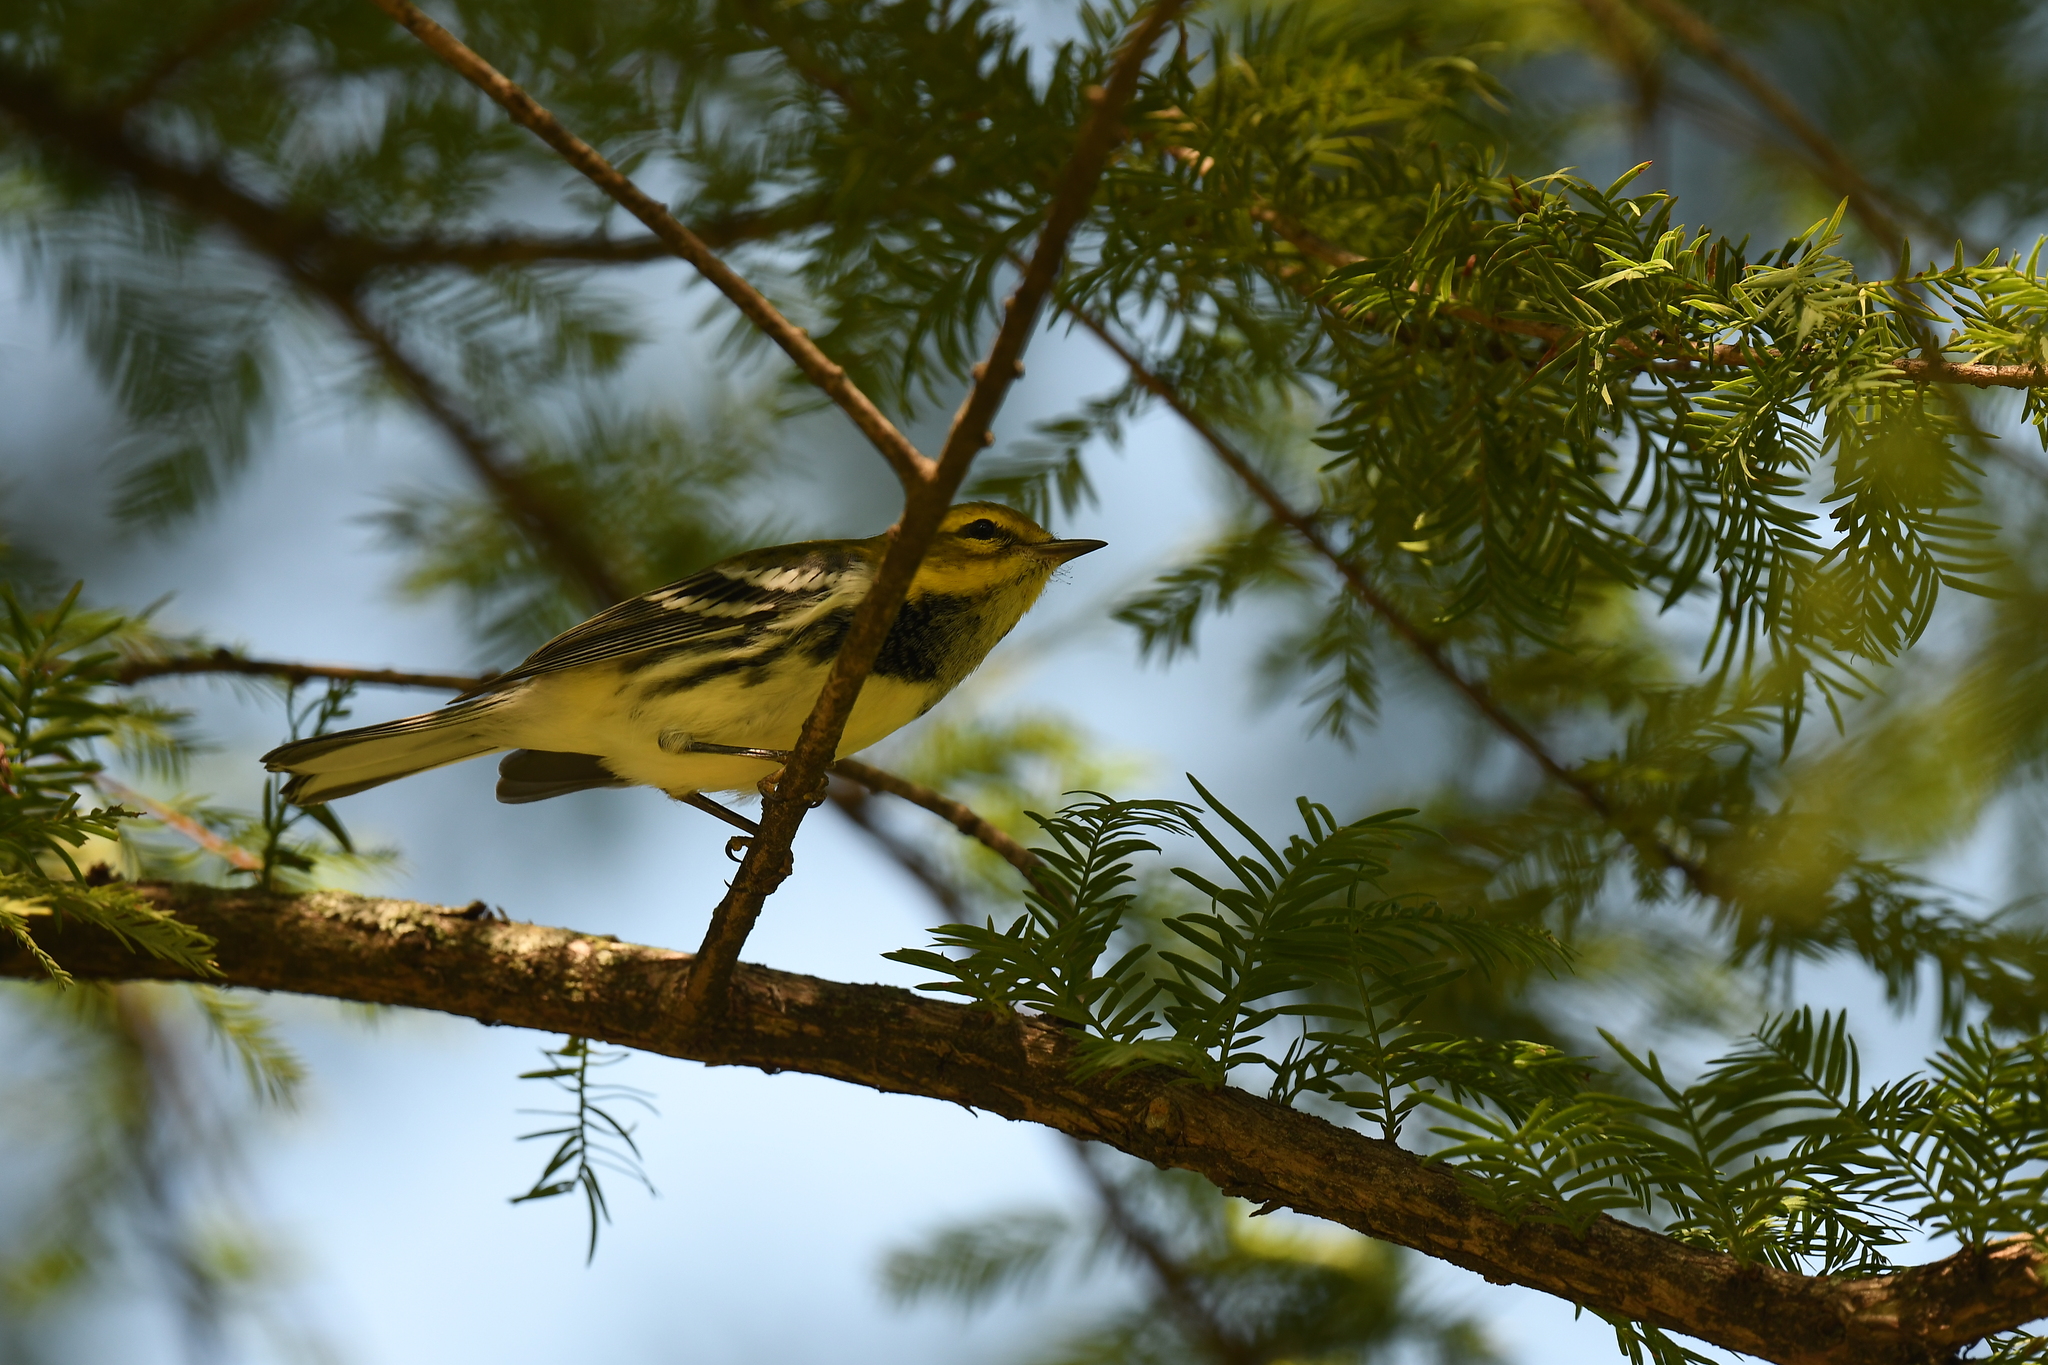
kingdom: Animalia
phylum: Chordata
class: Aves
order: Passeriformes
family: Parulidae
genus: Setophaga
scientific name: Setophaga virens
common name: Black-throated green warbler
